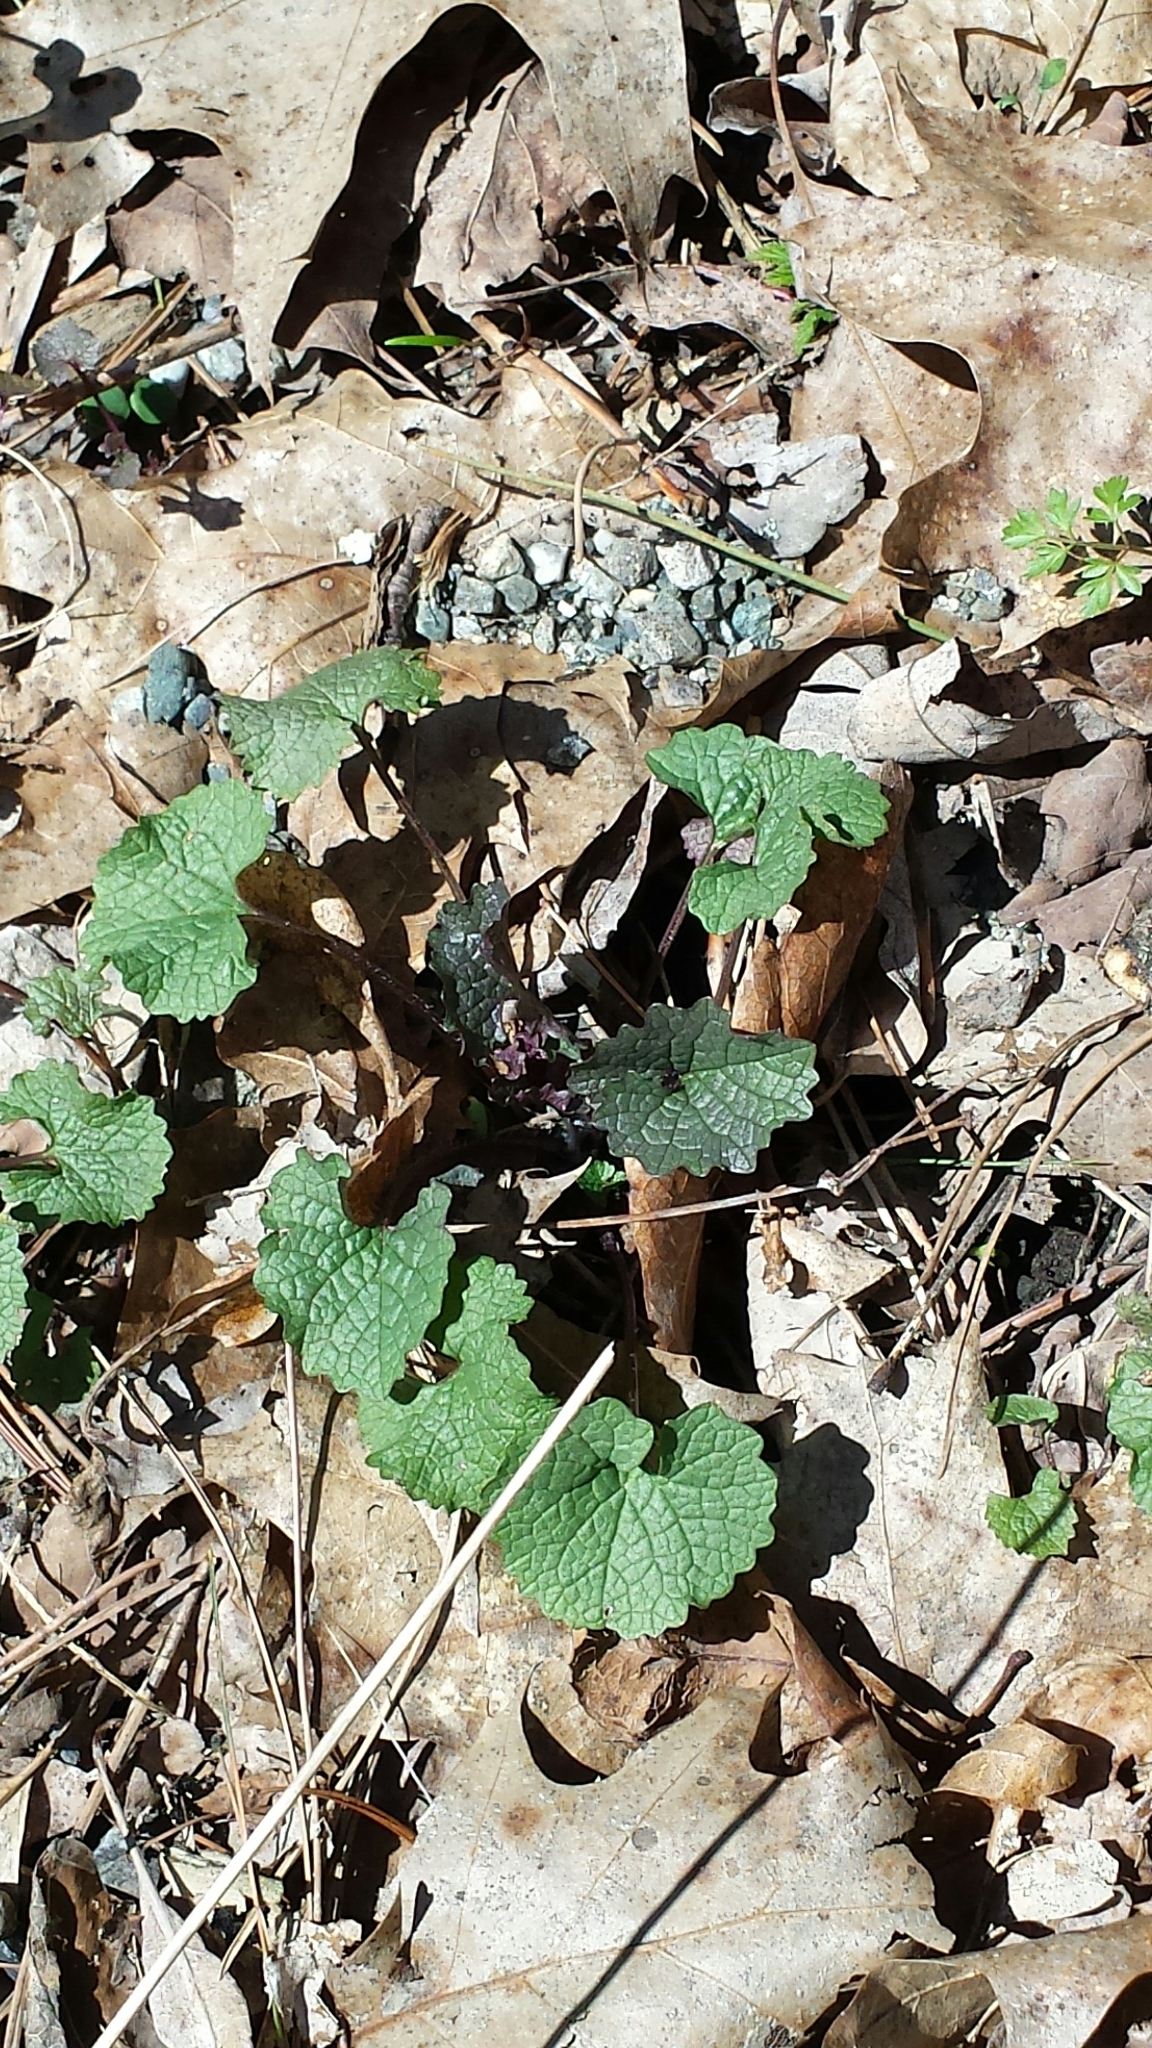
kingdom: Plantae
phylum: Tracheophyta
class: Magnoliopsida
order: Brassicales
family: Brassicaceae
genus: Alliaria
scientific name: Alliaria petiolata
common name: Garlic mustard
